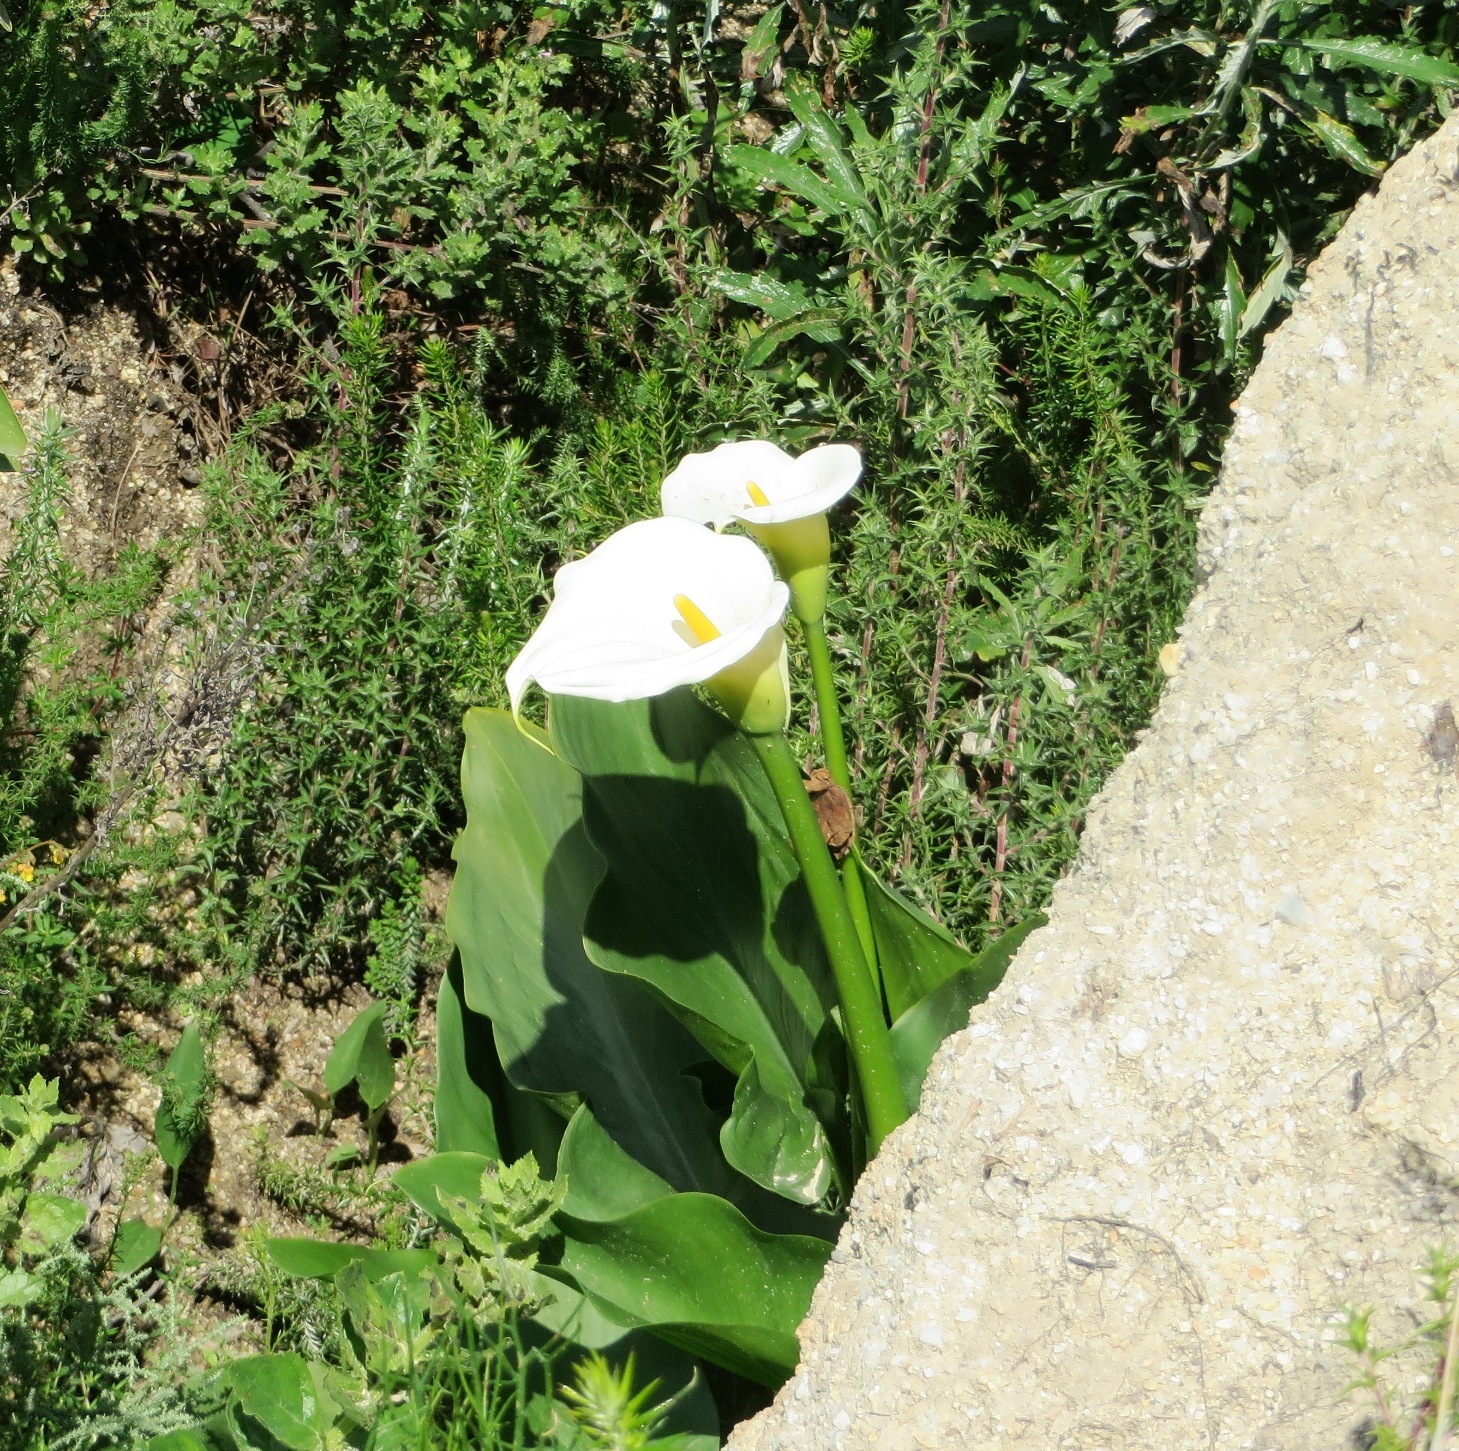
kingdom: Plantae
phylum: Tracheophyta
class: Liliopsida
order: Alismatales
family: Araceae
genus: Zantedeschia
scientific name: Zantedeschia aethiopica
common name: Altar-lily
